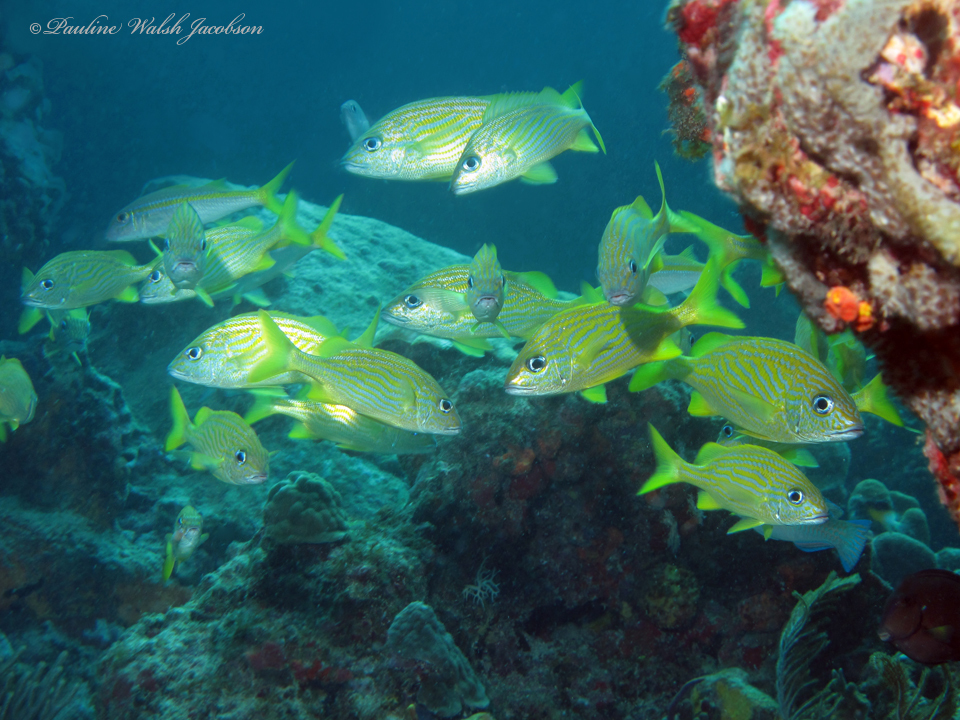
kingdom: Animalia
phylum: Chordata
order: Perciformes
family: Haemulidae
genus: Haemulon
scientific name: Haemulon flavolineatum
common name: French grunt
